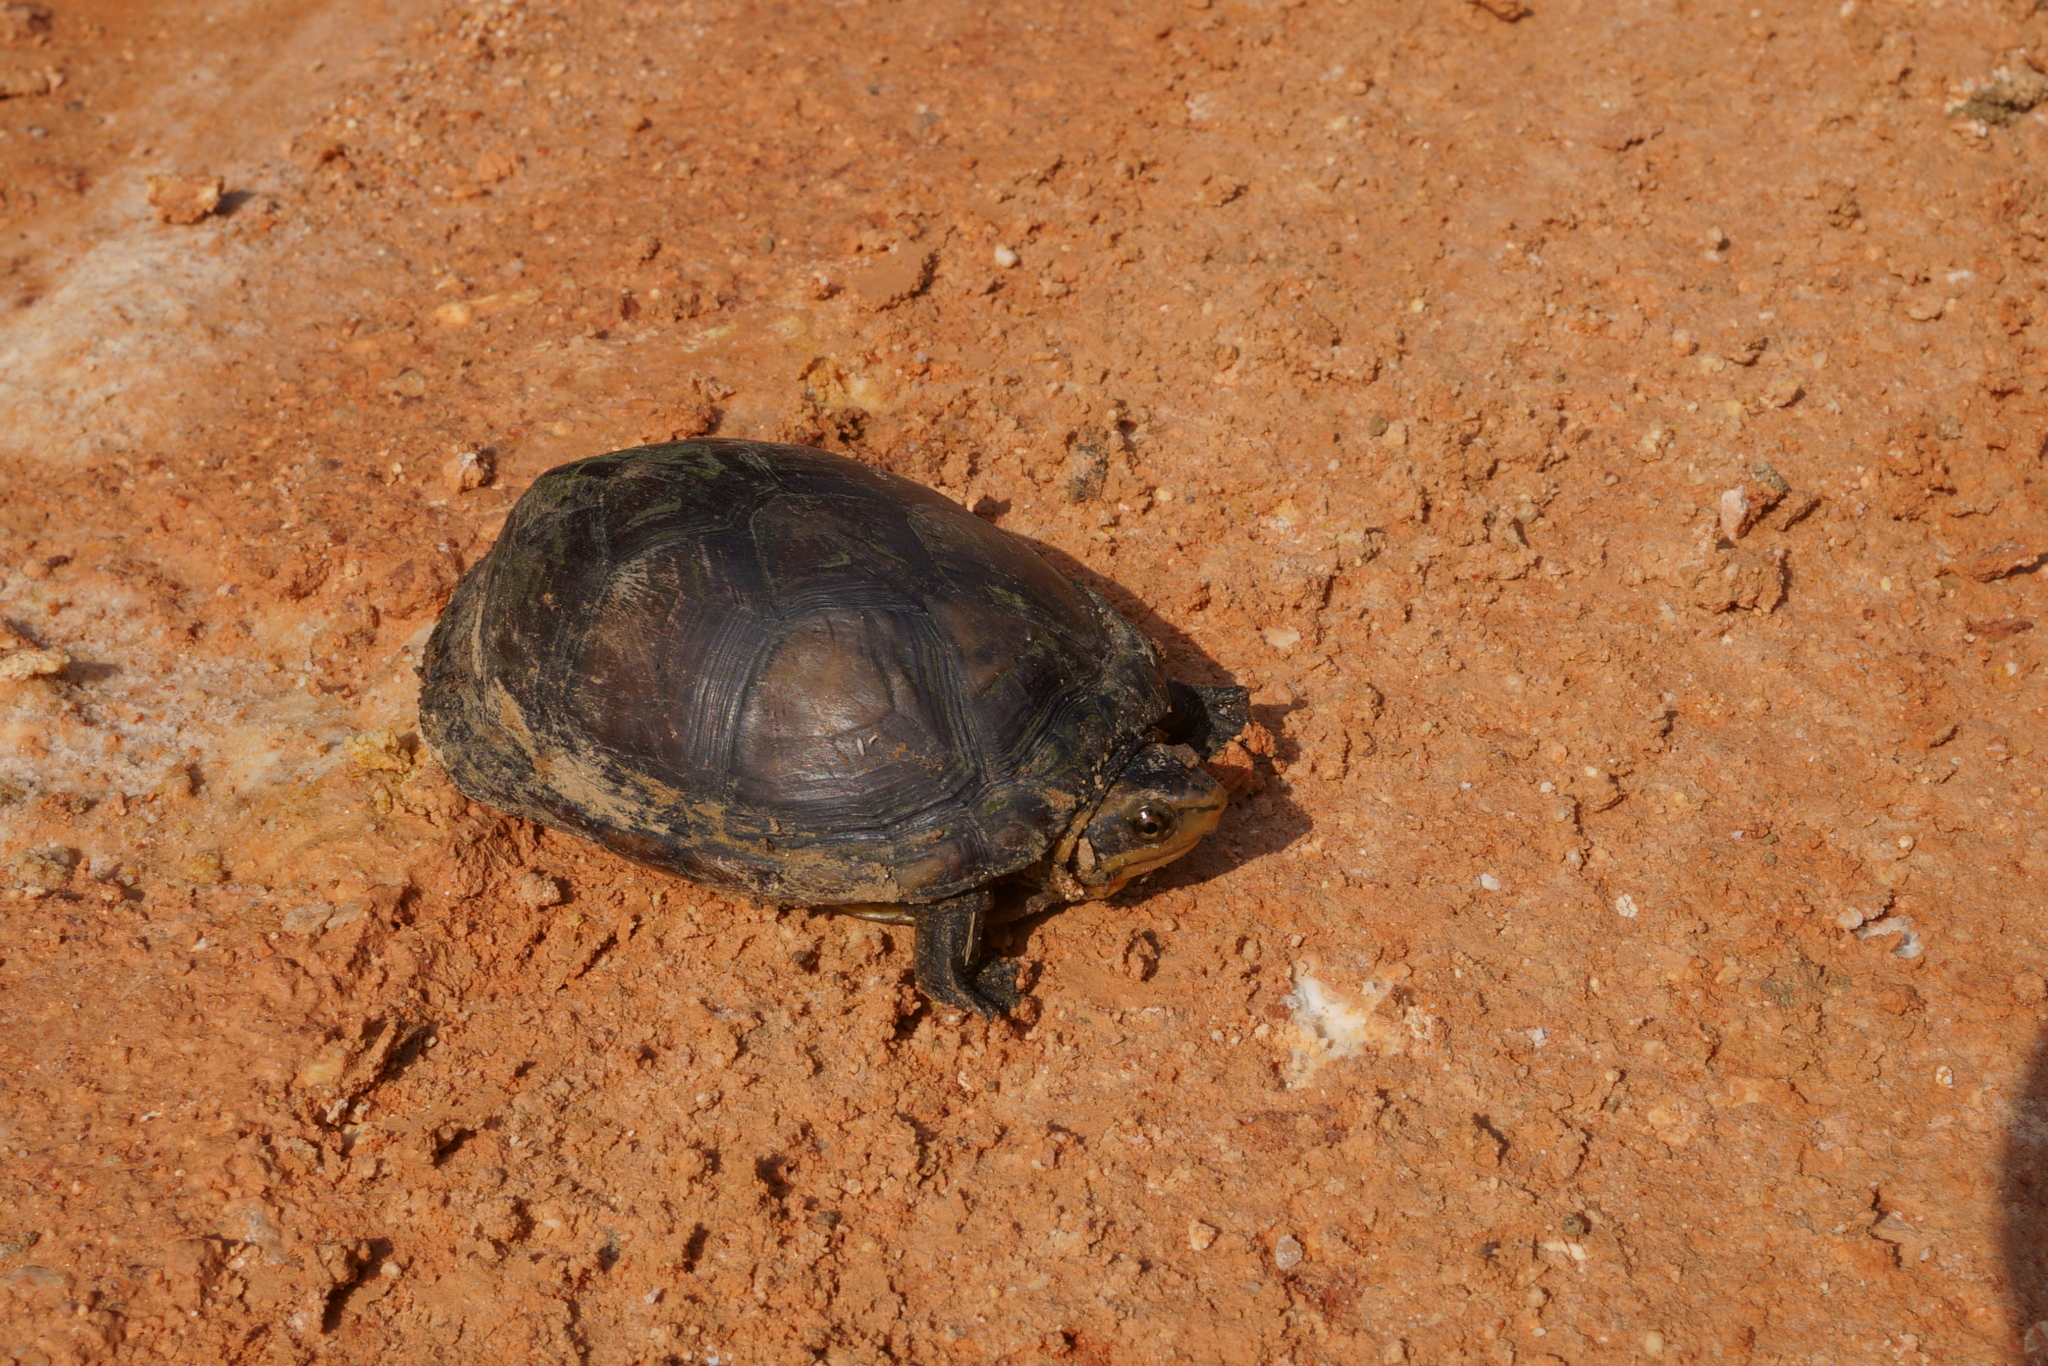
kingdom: Animalia
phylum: Chordata
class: Testudines
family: Kinosternidae
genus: Kinosternon
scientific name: Kinosternon leucostomum
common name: White-lipped mud turtle
